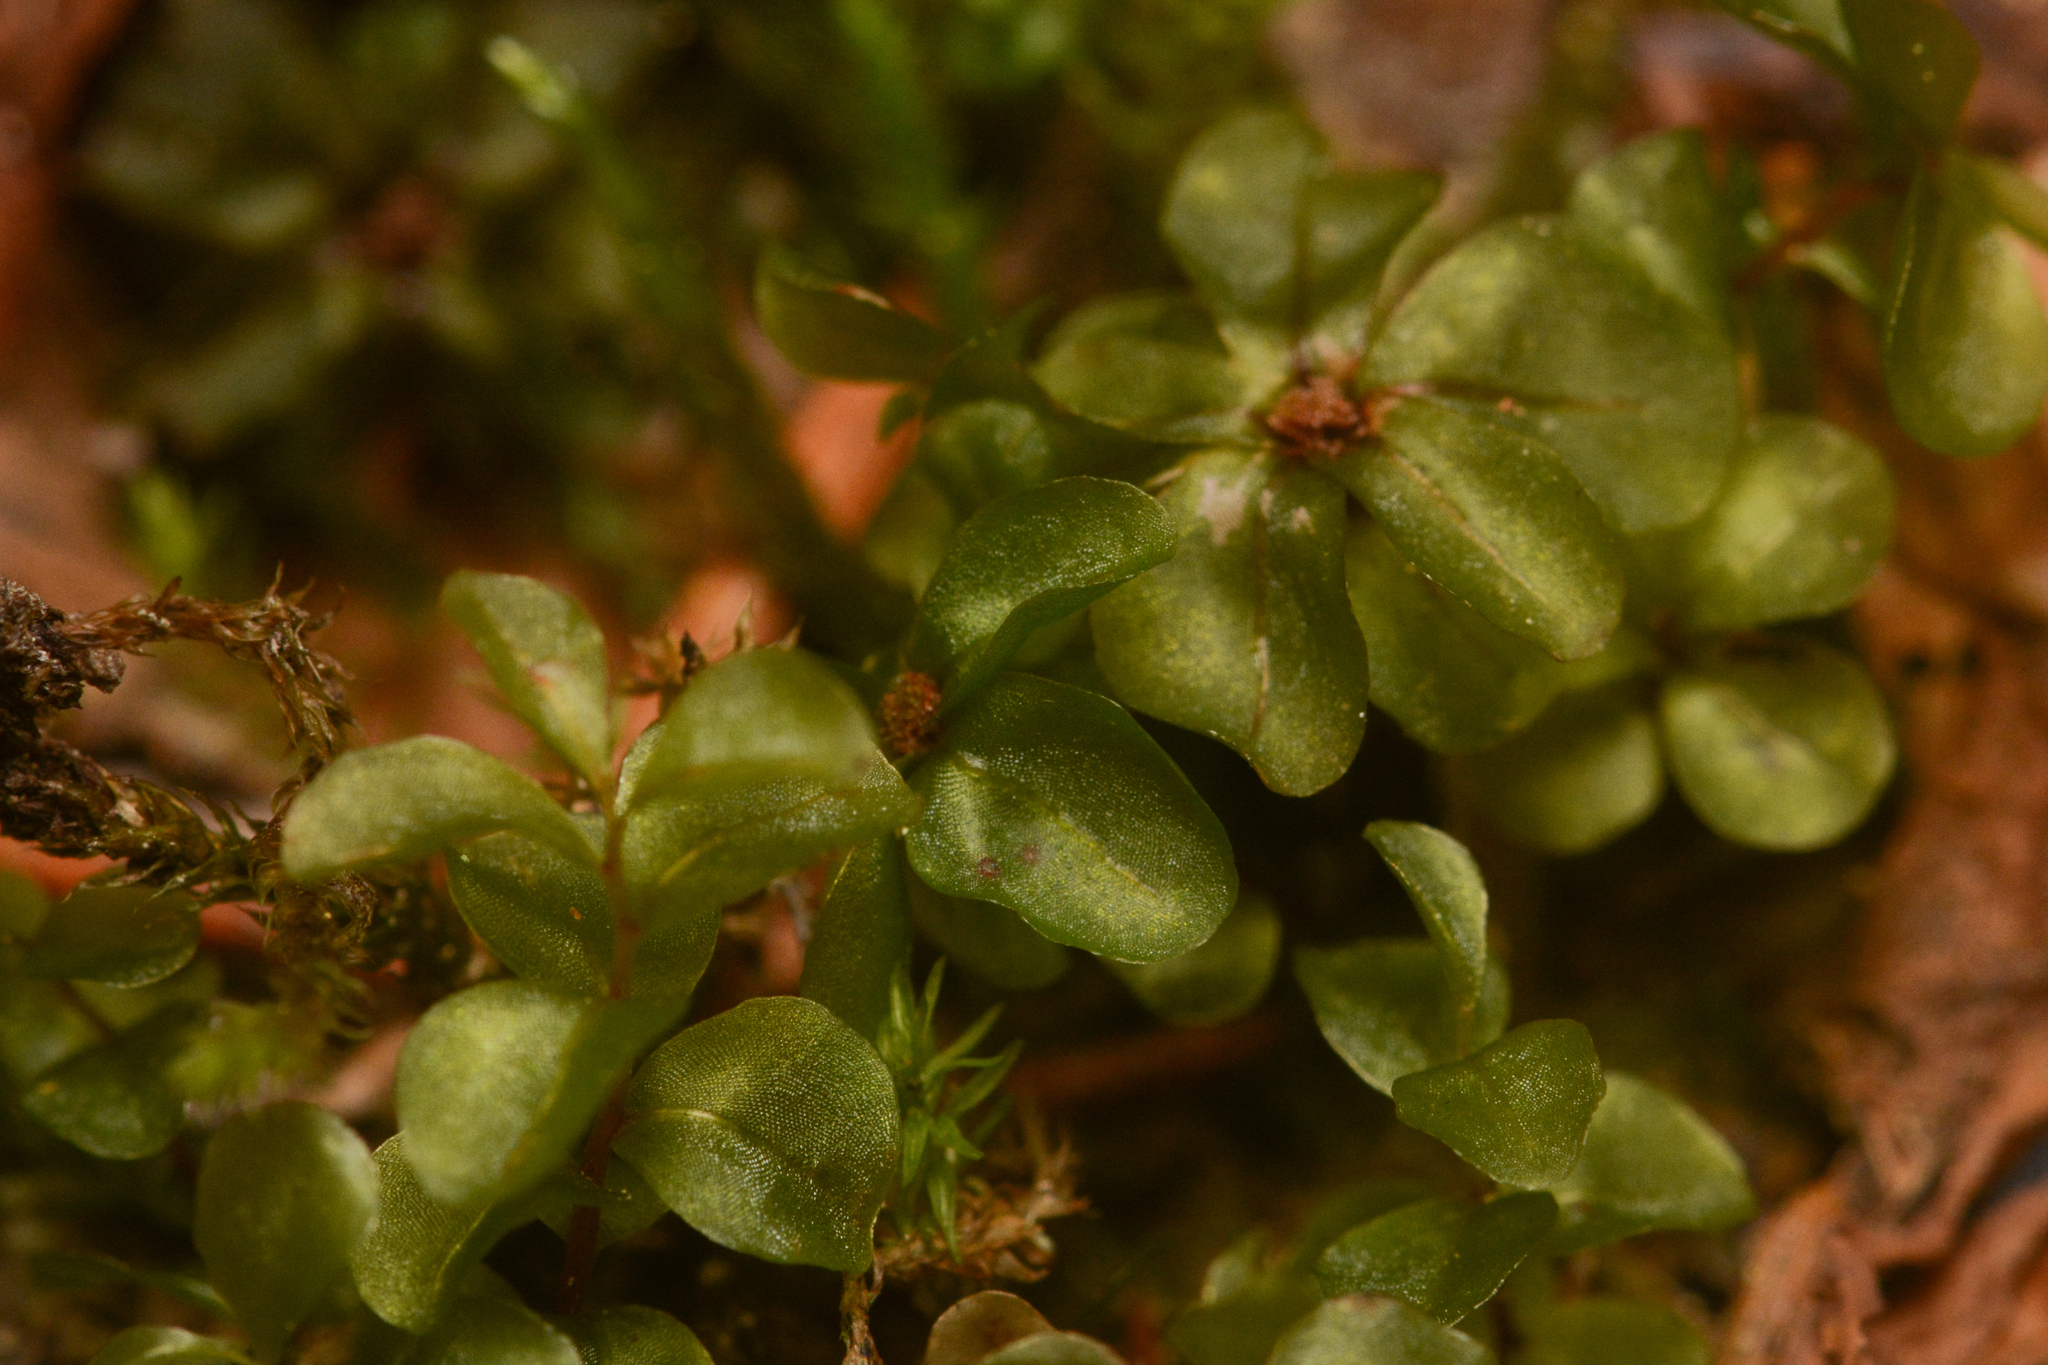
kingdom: Plantae
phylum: Bryophyta
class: Bryopsida
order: Bryales
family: Mniaceae
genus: Rhizomnium
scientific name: Rhizomnium nudum
